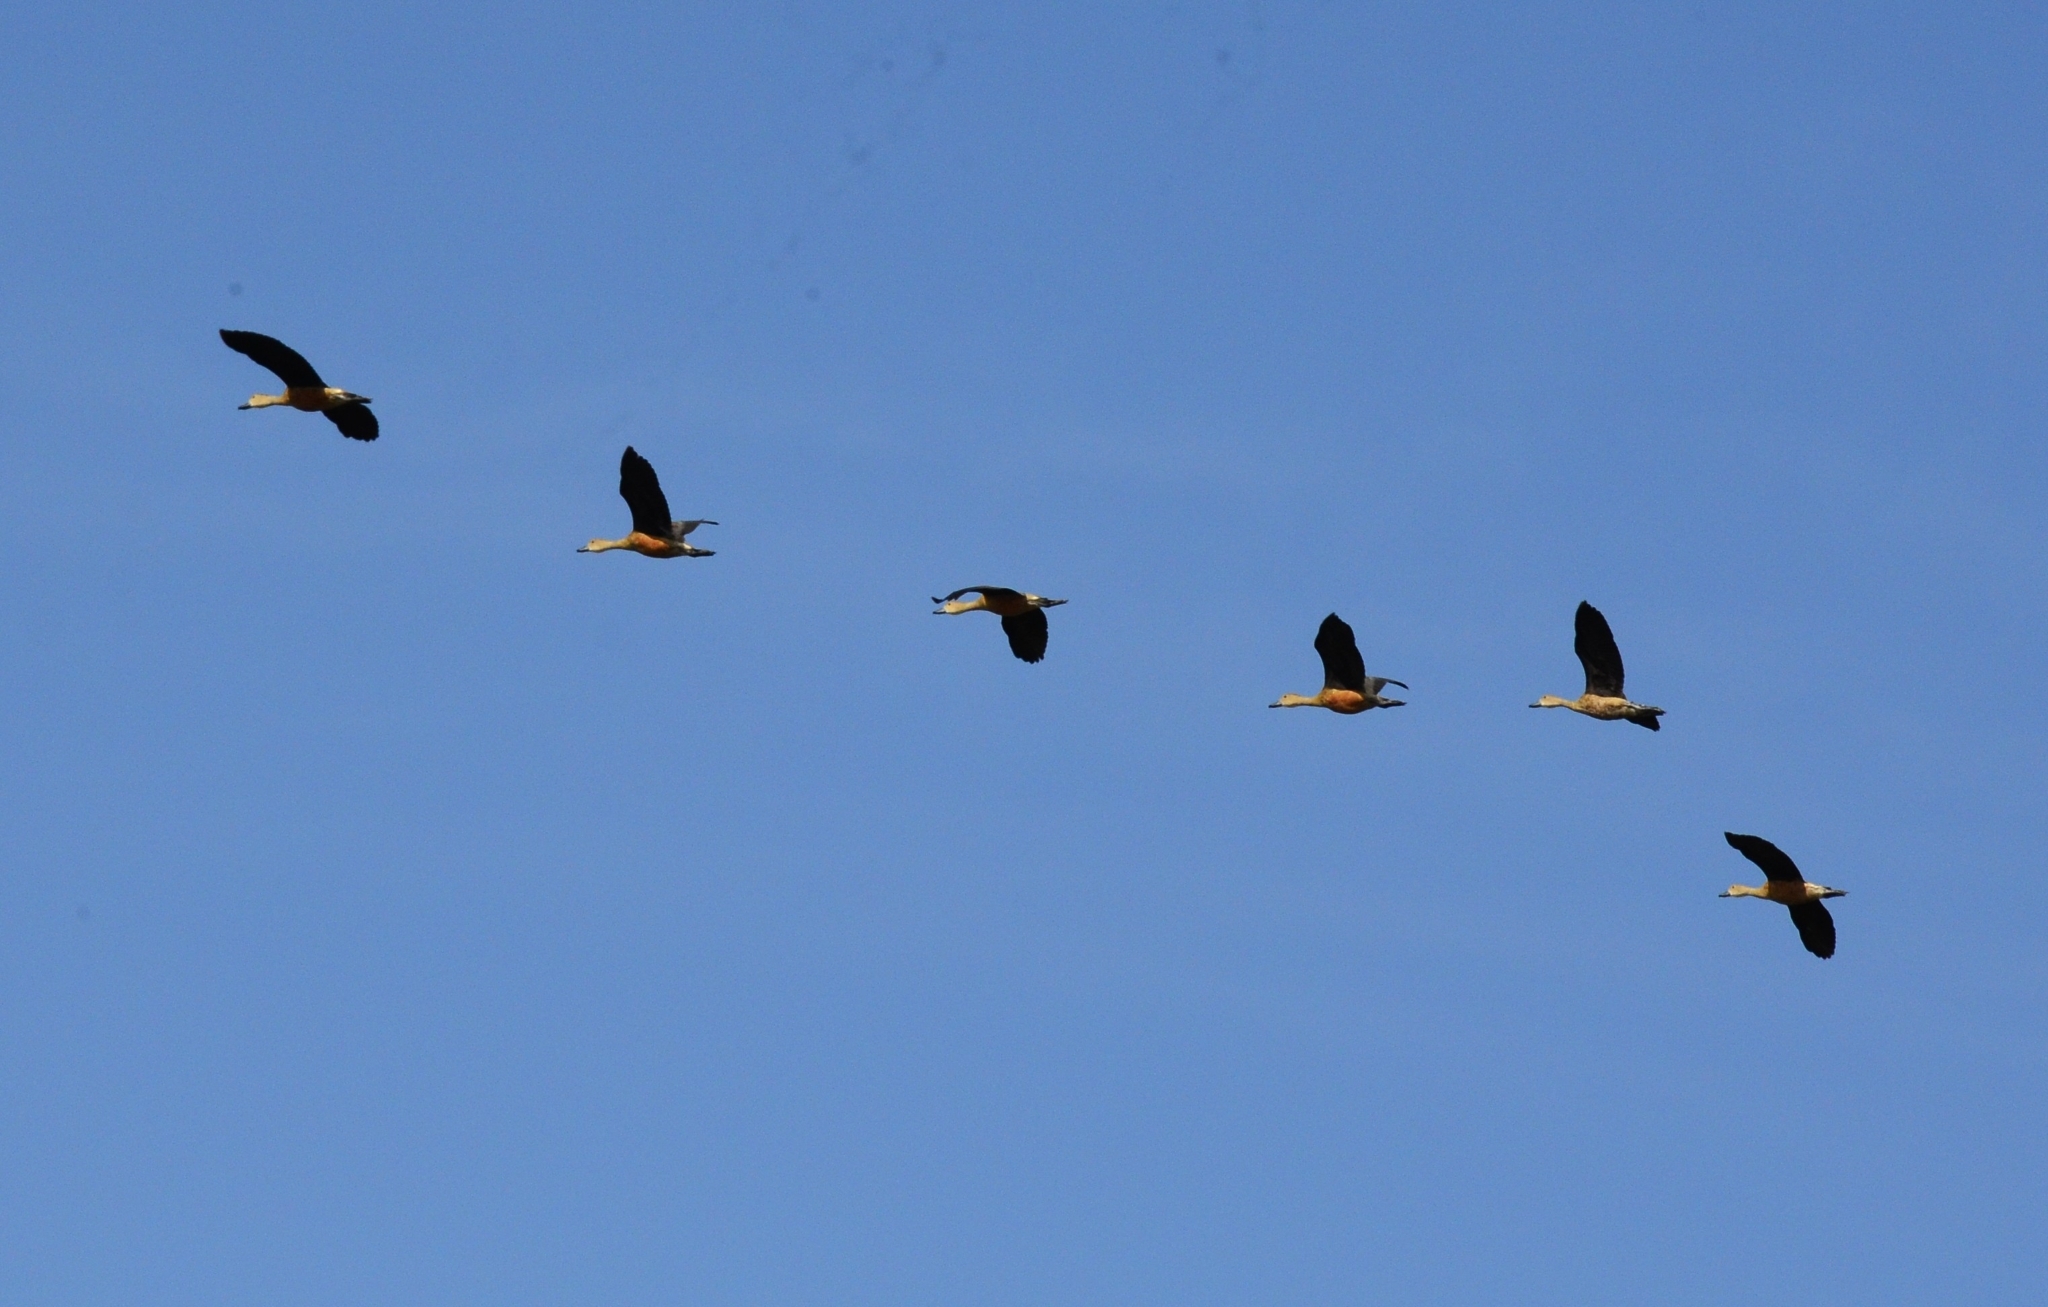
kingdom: Animalia
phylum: Chordata
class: Aves
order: Anseriformes
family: Anatidae
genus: Dendrocygna
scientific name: Dendrocygna javanica
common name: Lesser whistling-duck
